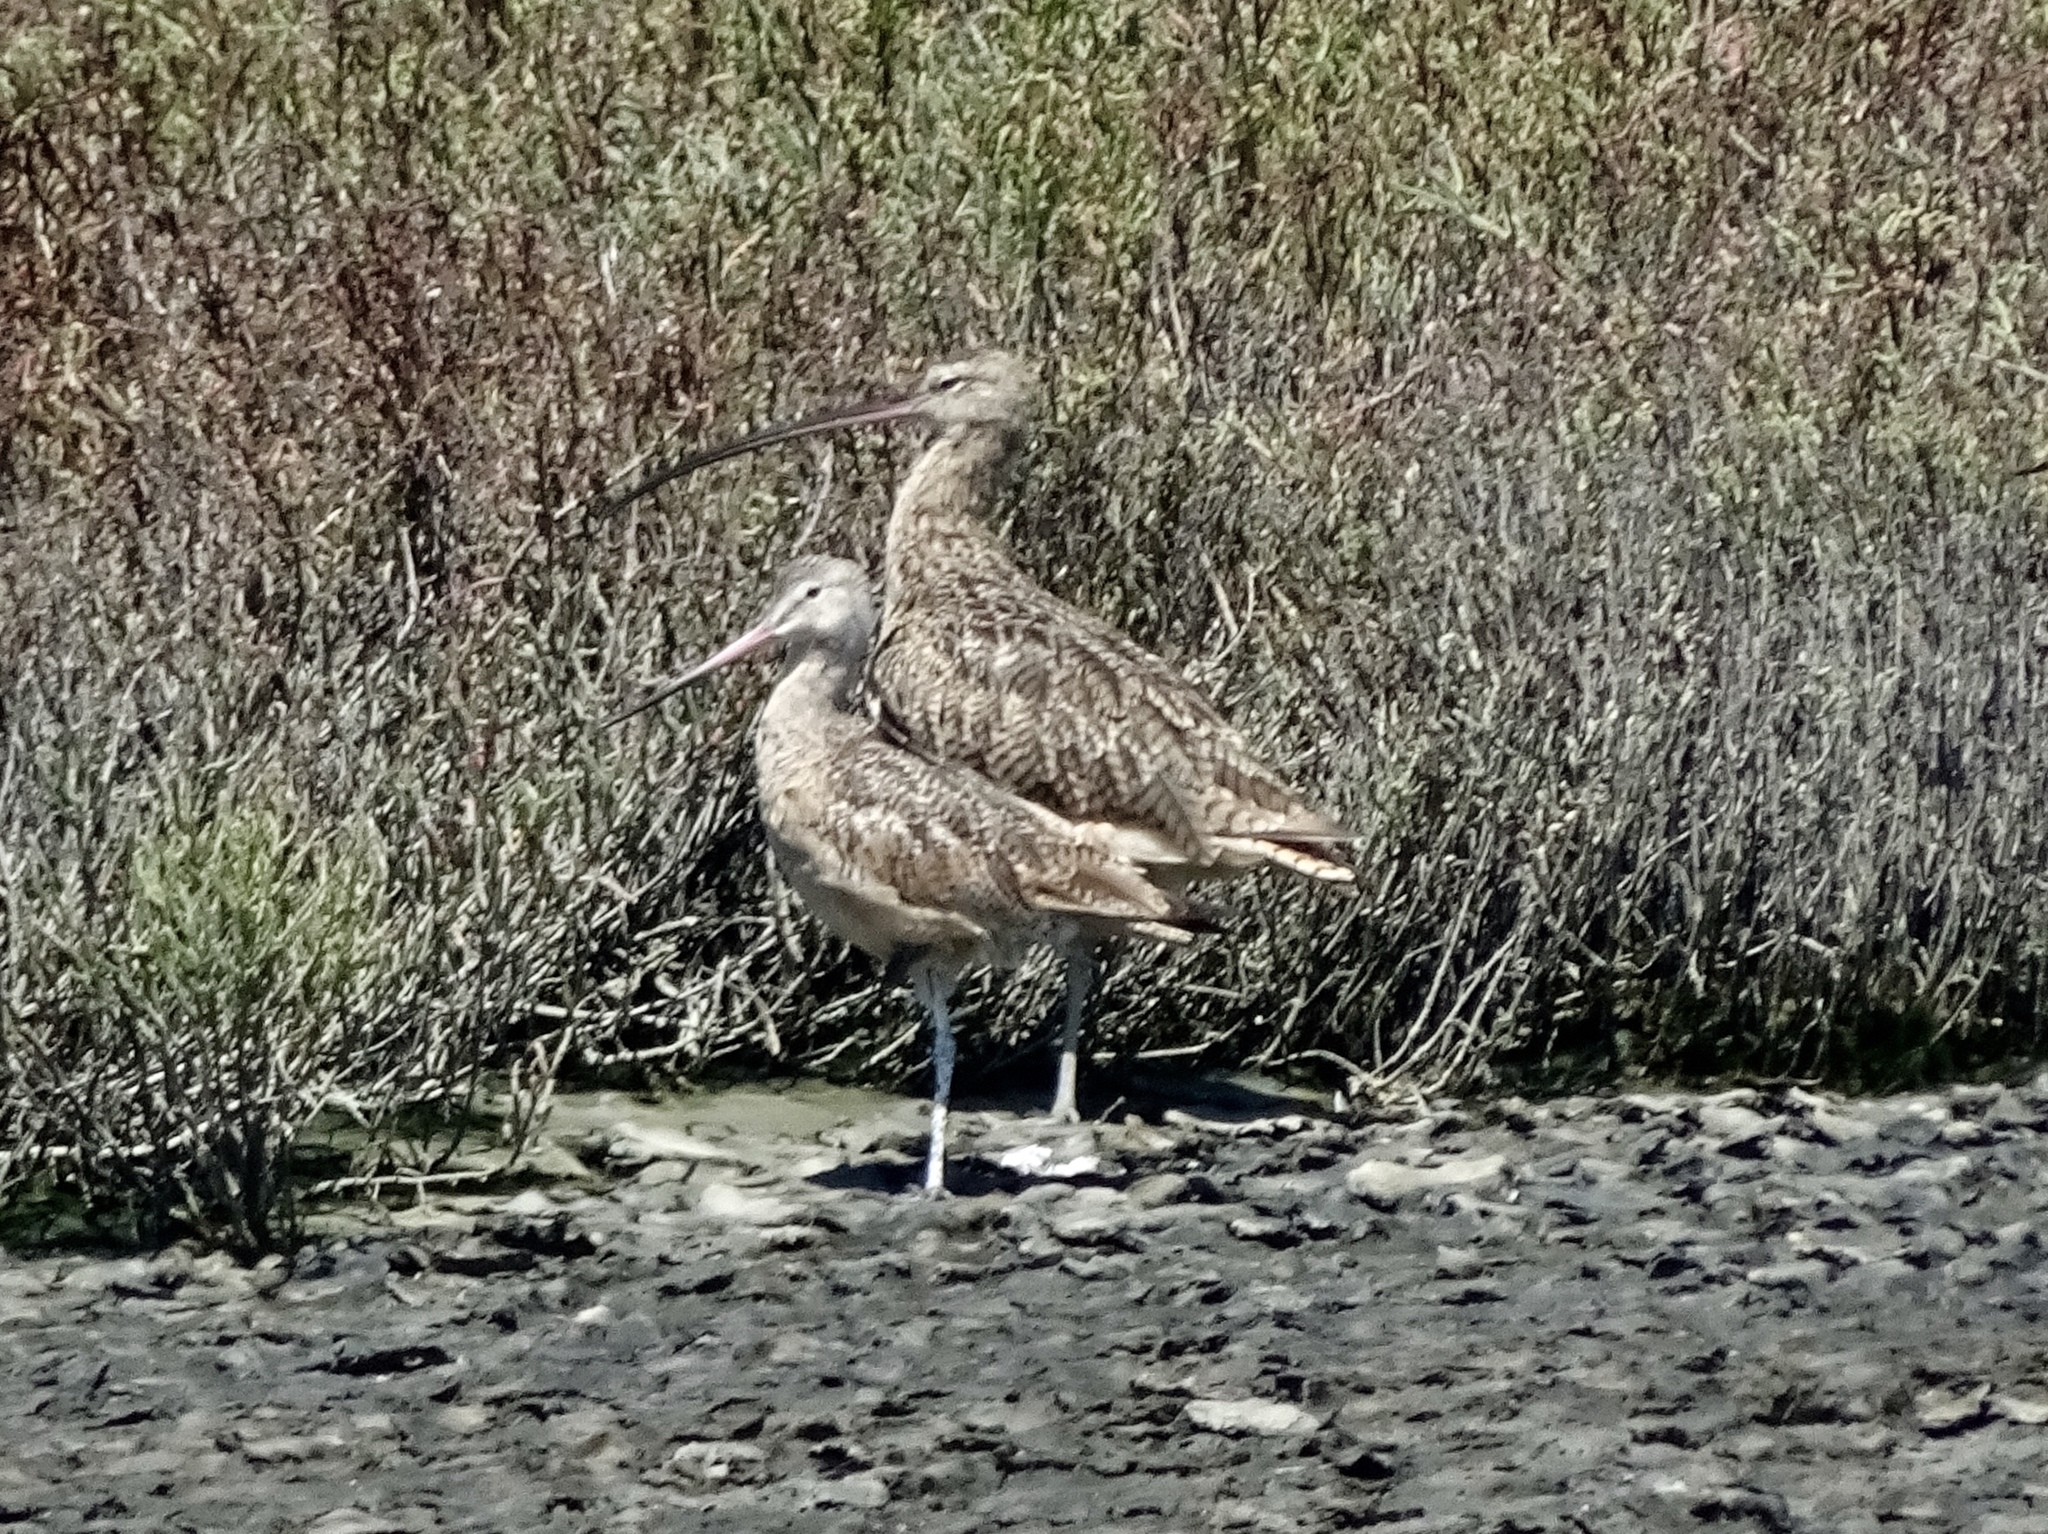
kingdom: Animalia
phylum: Chordata
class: Aves
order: Charadriiformes
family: Scolopacidae
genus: Numenius
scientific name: Numenius americanus
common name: Long-billed curlew
